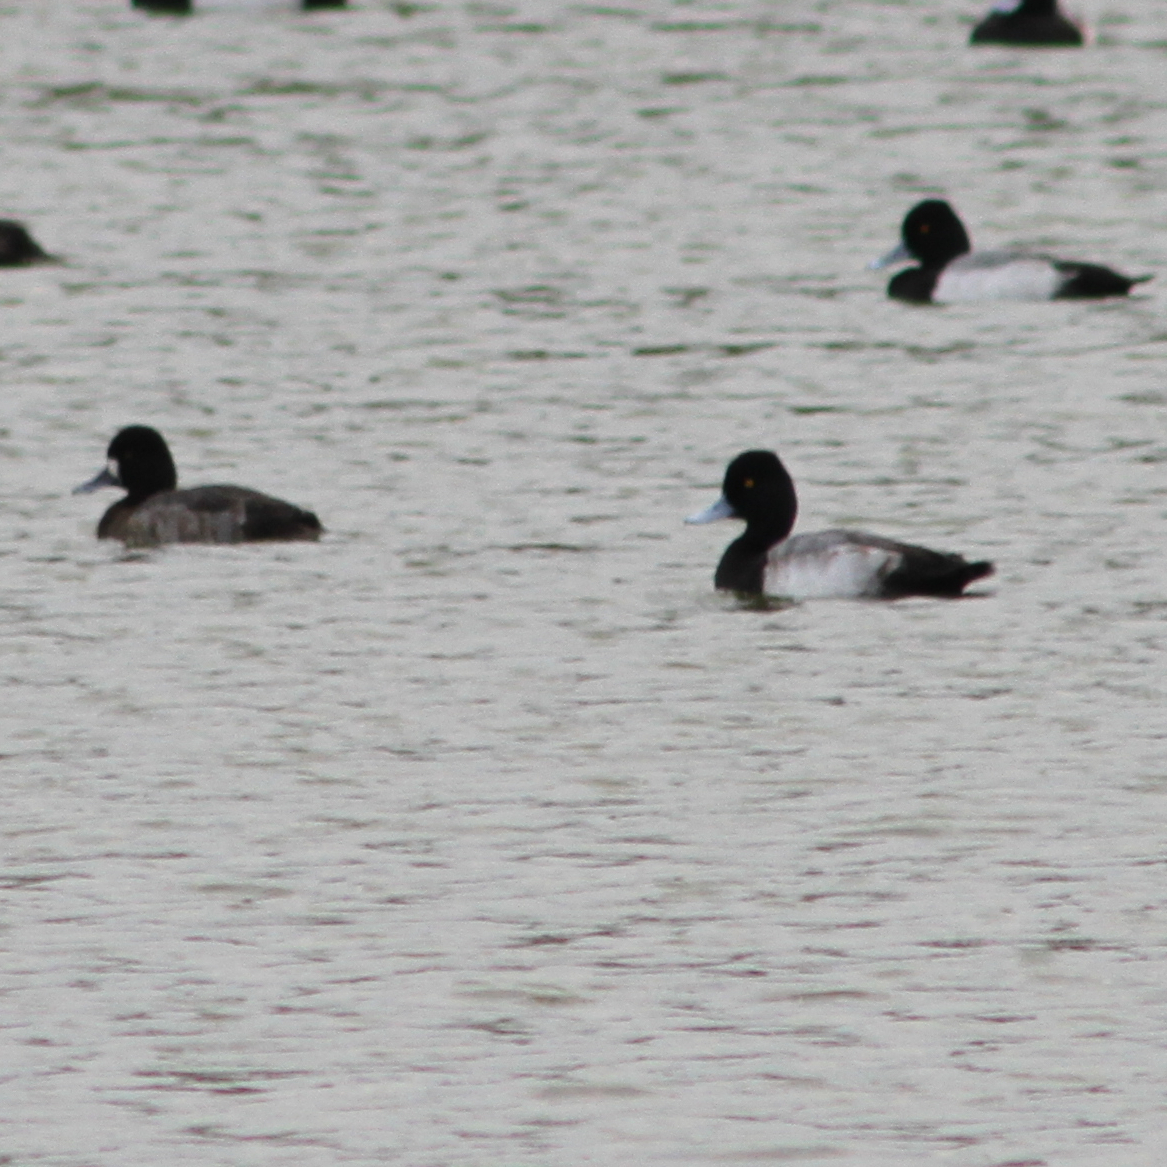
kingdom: Animalia
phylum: Chordata
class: Aves
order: Anseriformes
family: Anatidae
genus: Aythya
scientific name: Aythya affinis
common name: Lesser scaup
